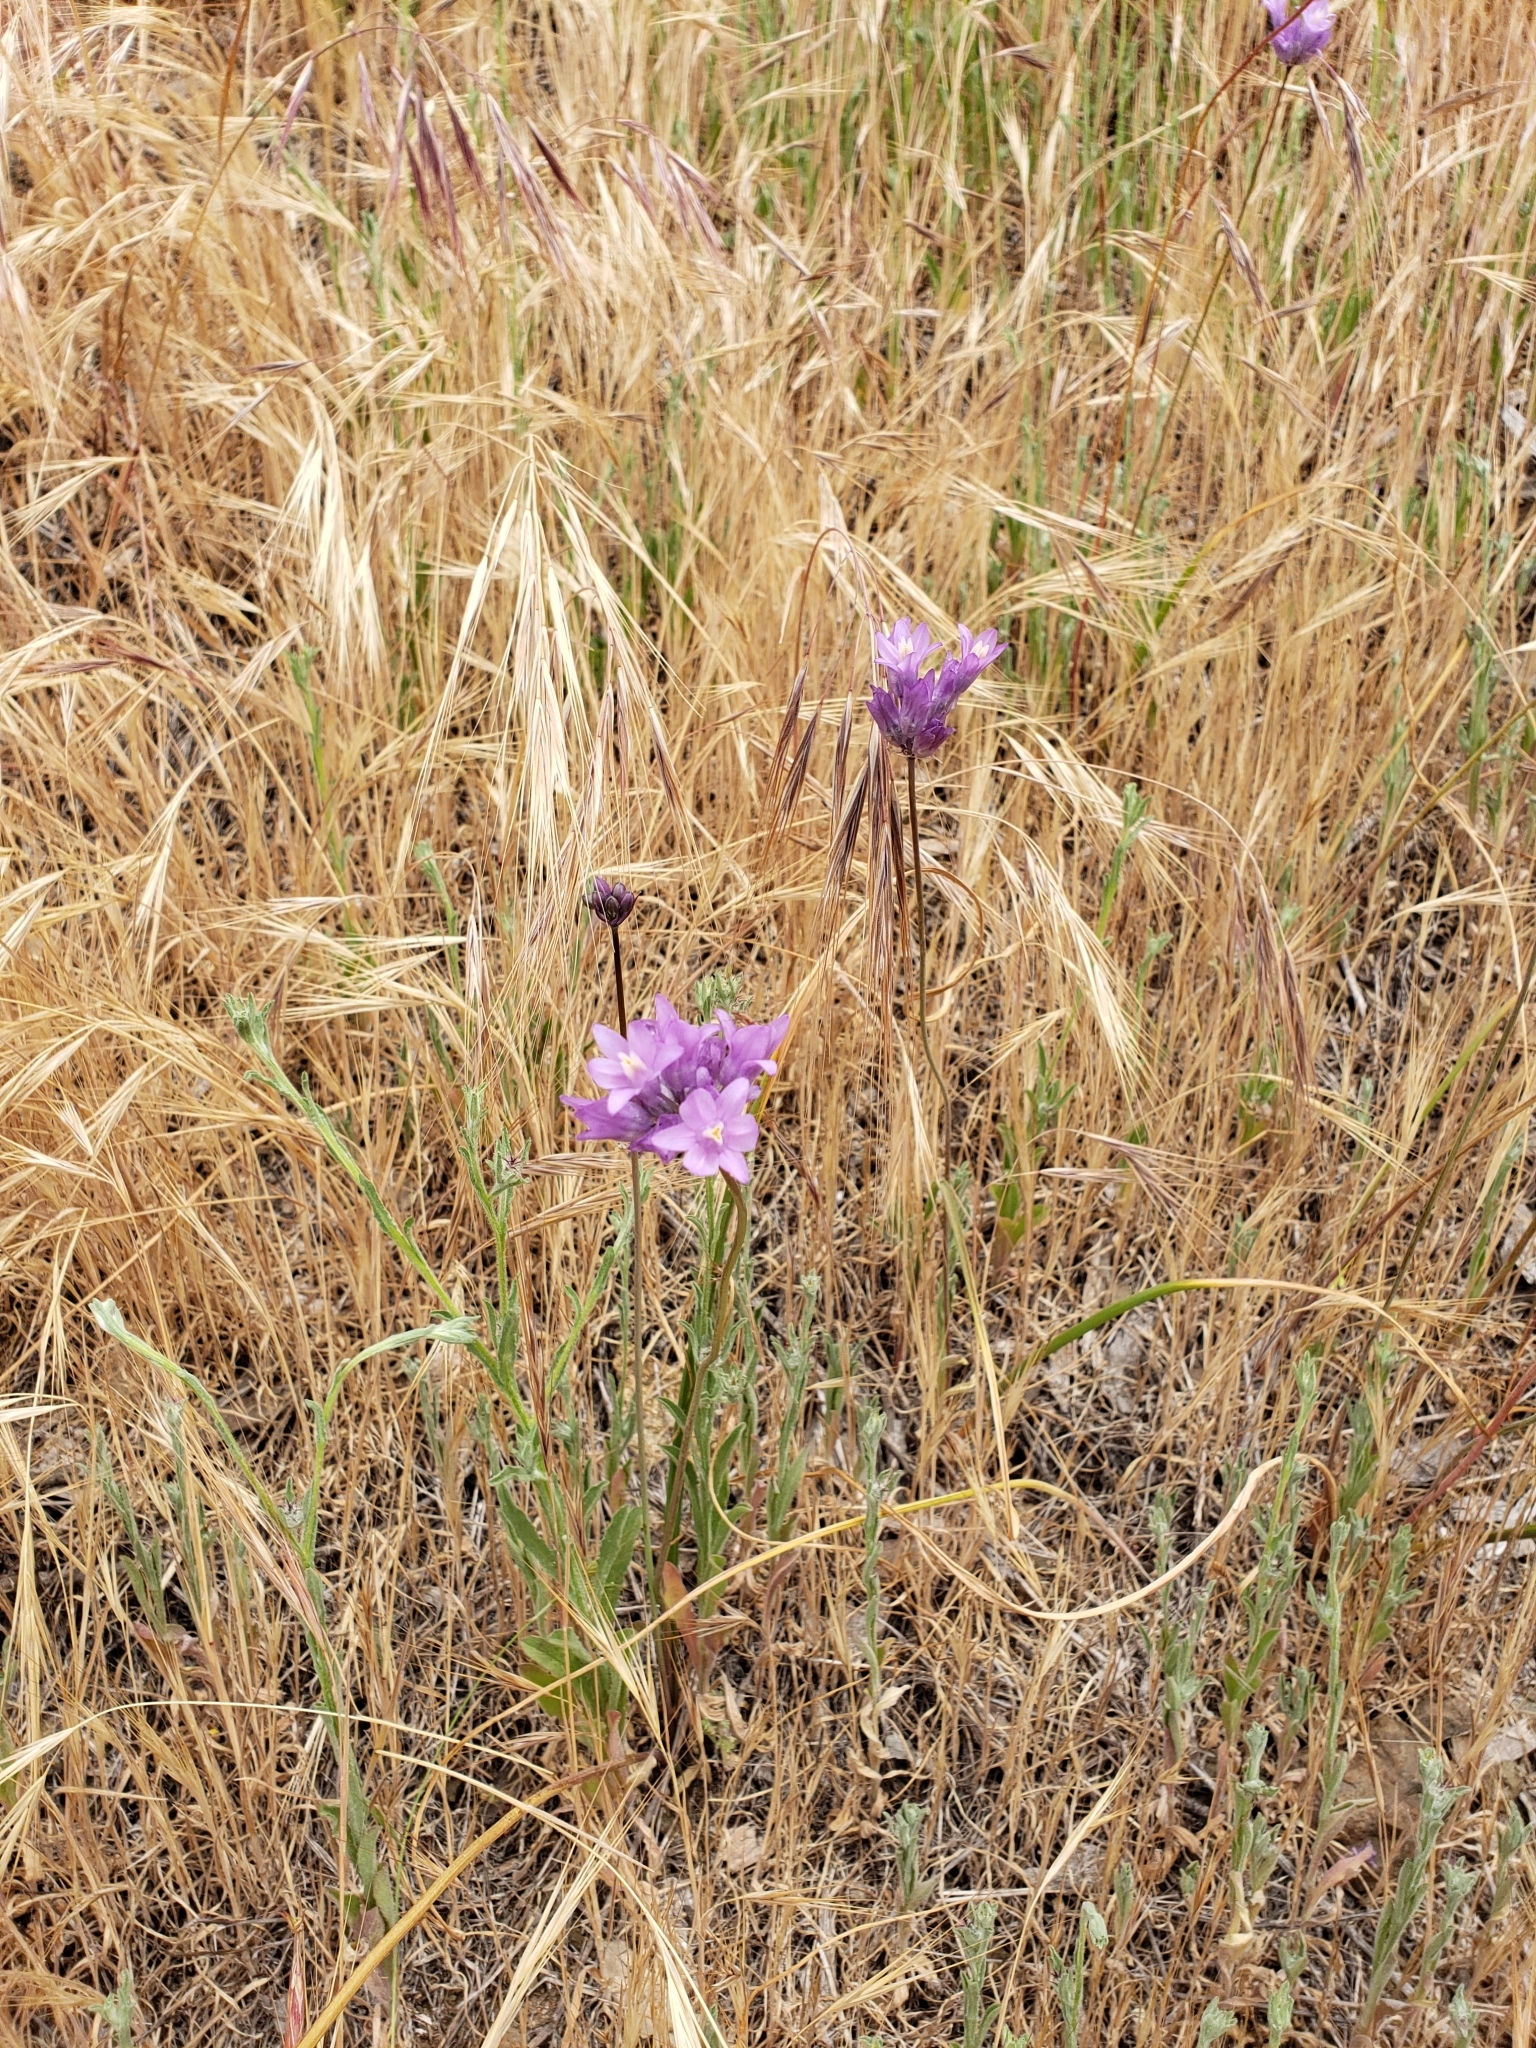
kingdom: Plantae
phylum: Tracheophyta
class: Liliopsida
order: Asparagales
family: Asparagaceae
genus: Dipterostemon
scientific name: Dipterostemon capitatus
